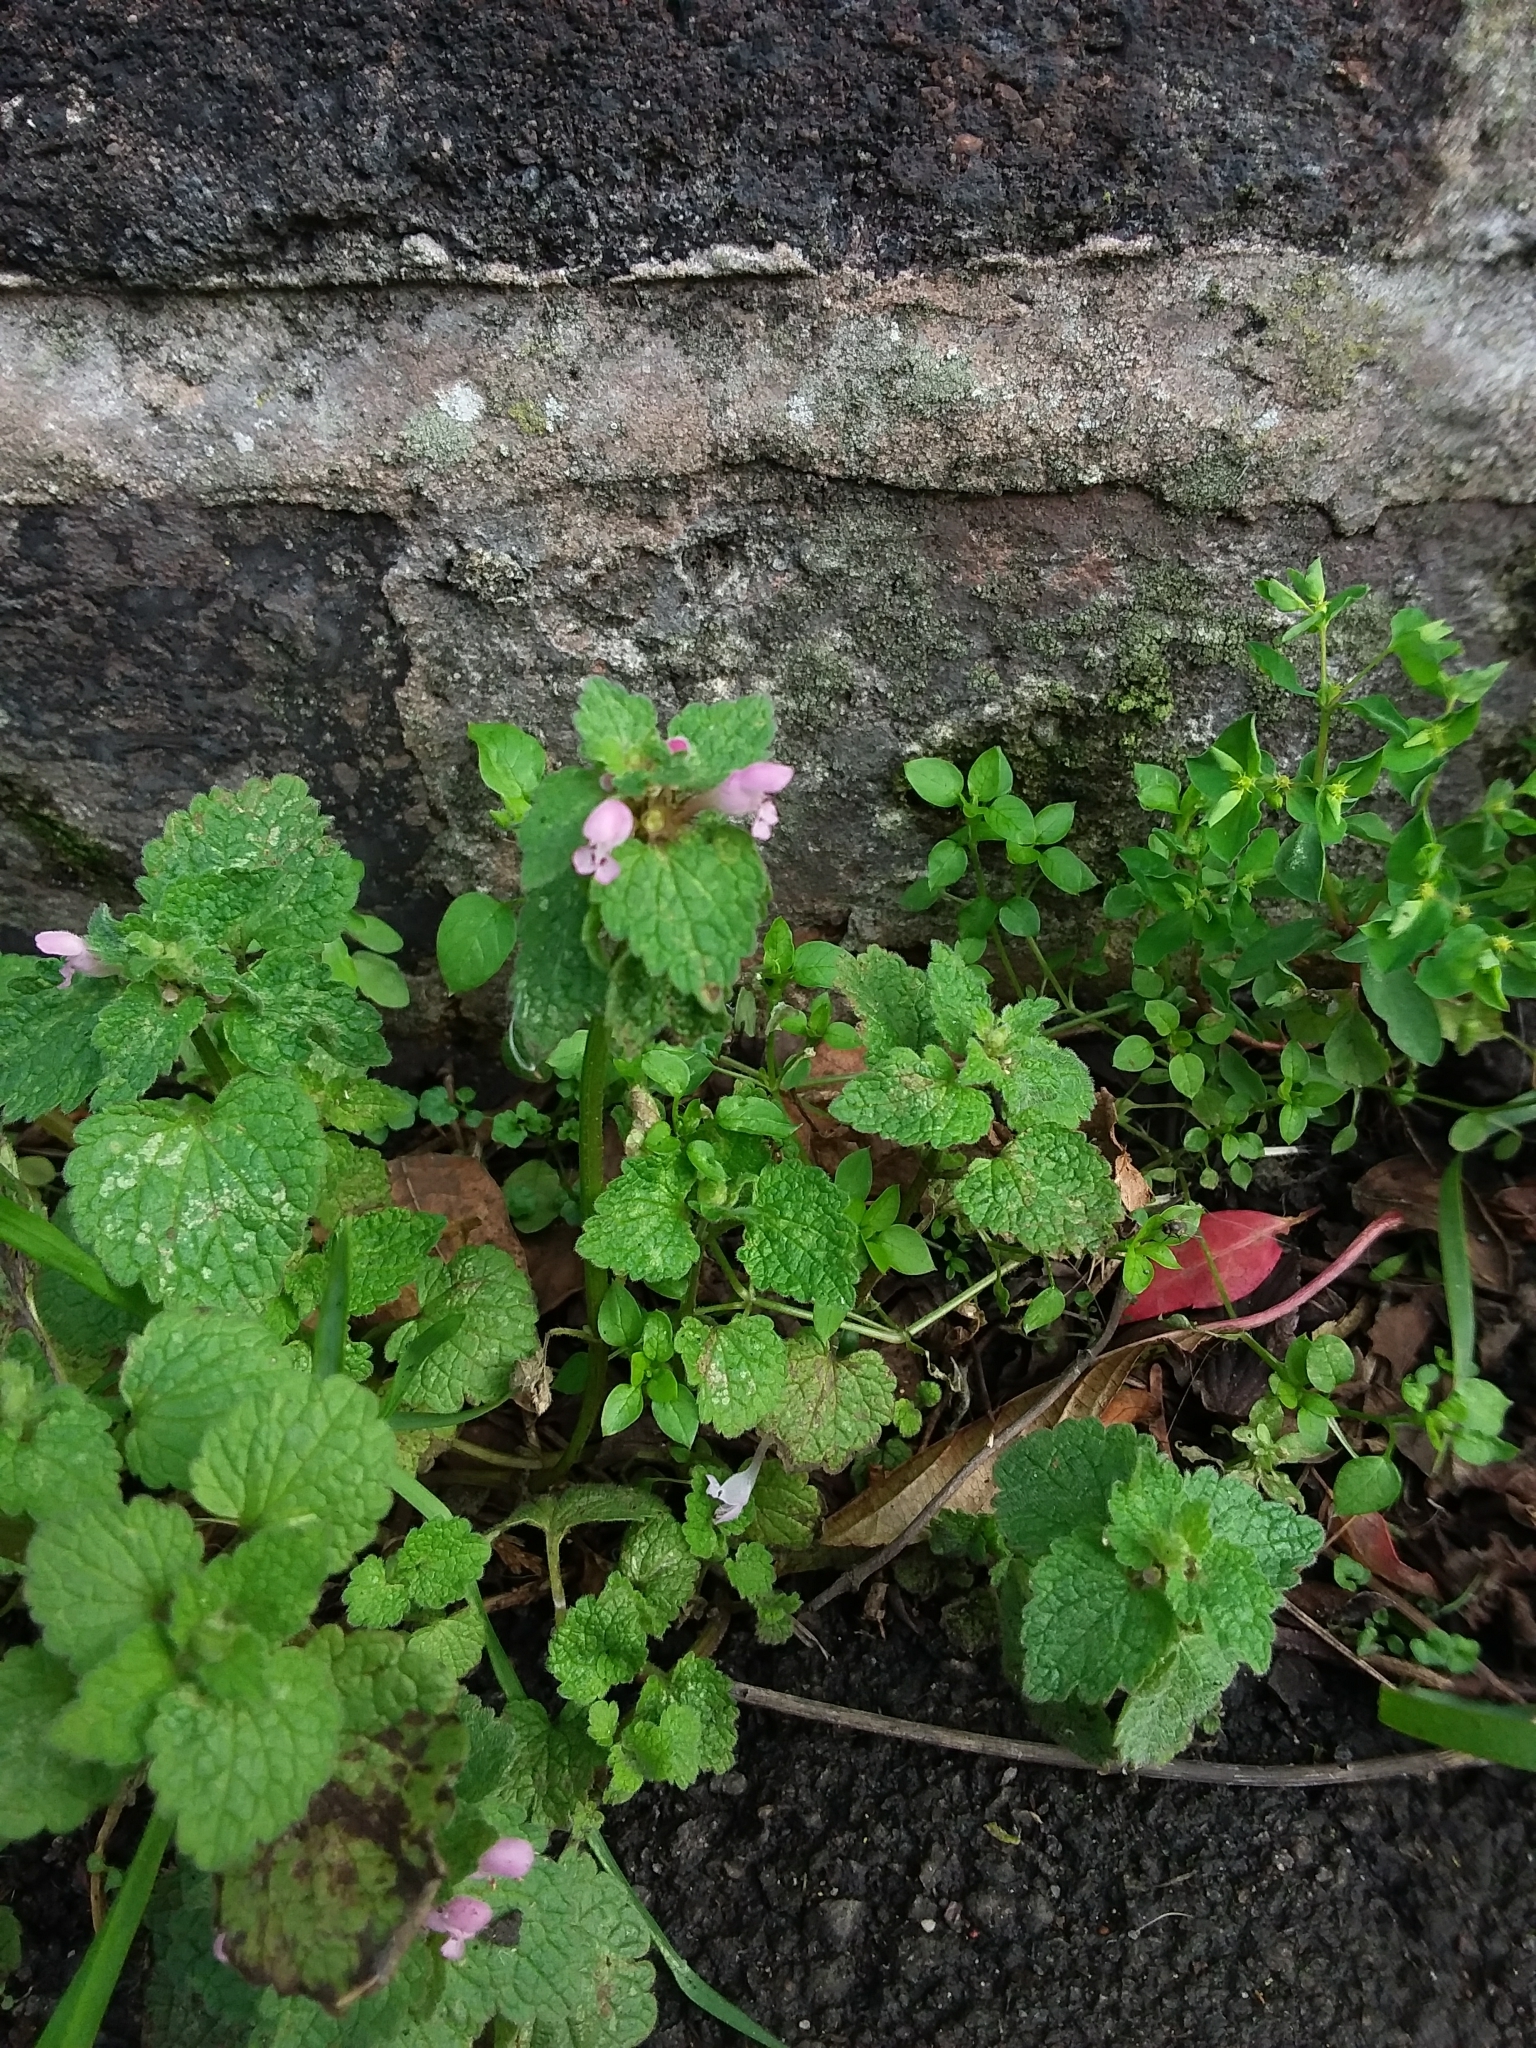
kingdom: Plantae
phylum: Tracheophyta
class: Magnoliopsida
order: Lamiales
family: Lamiaceae
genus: Lamium
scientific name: Lamium purpureum
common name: Red dead-nettle
